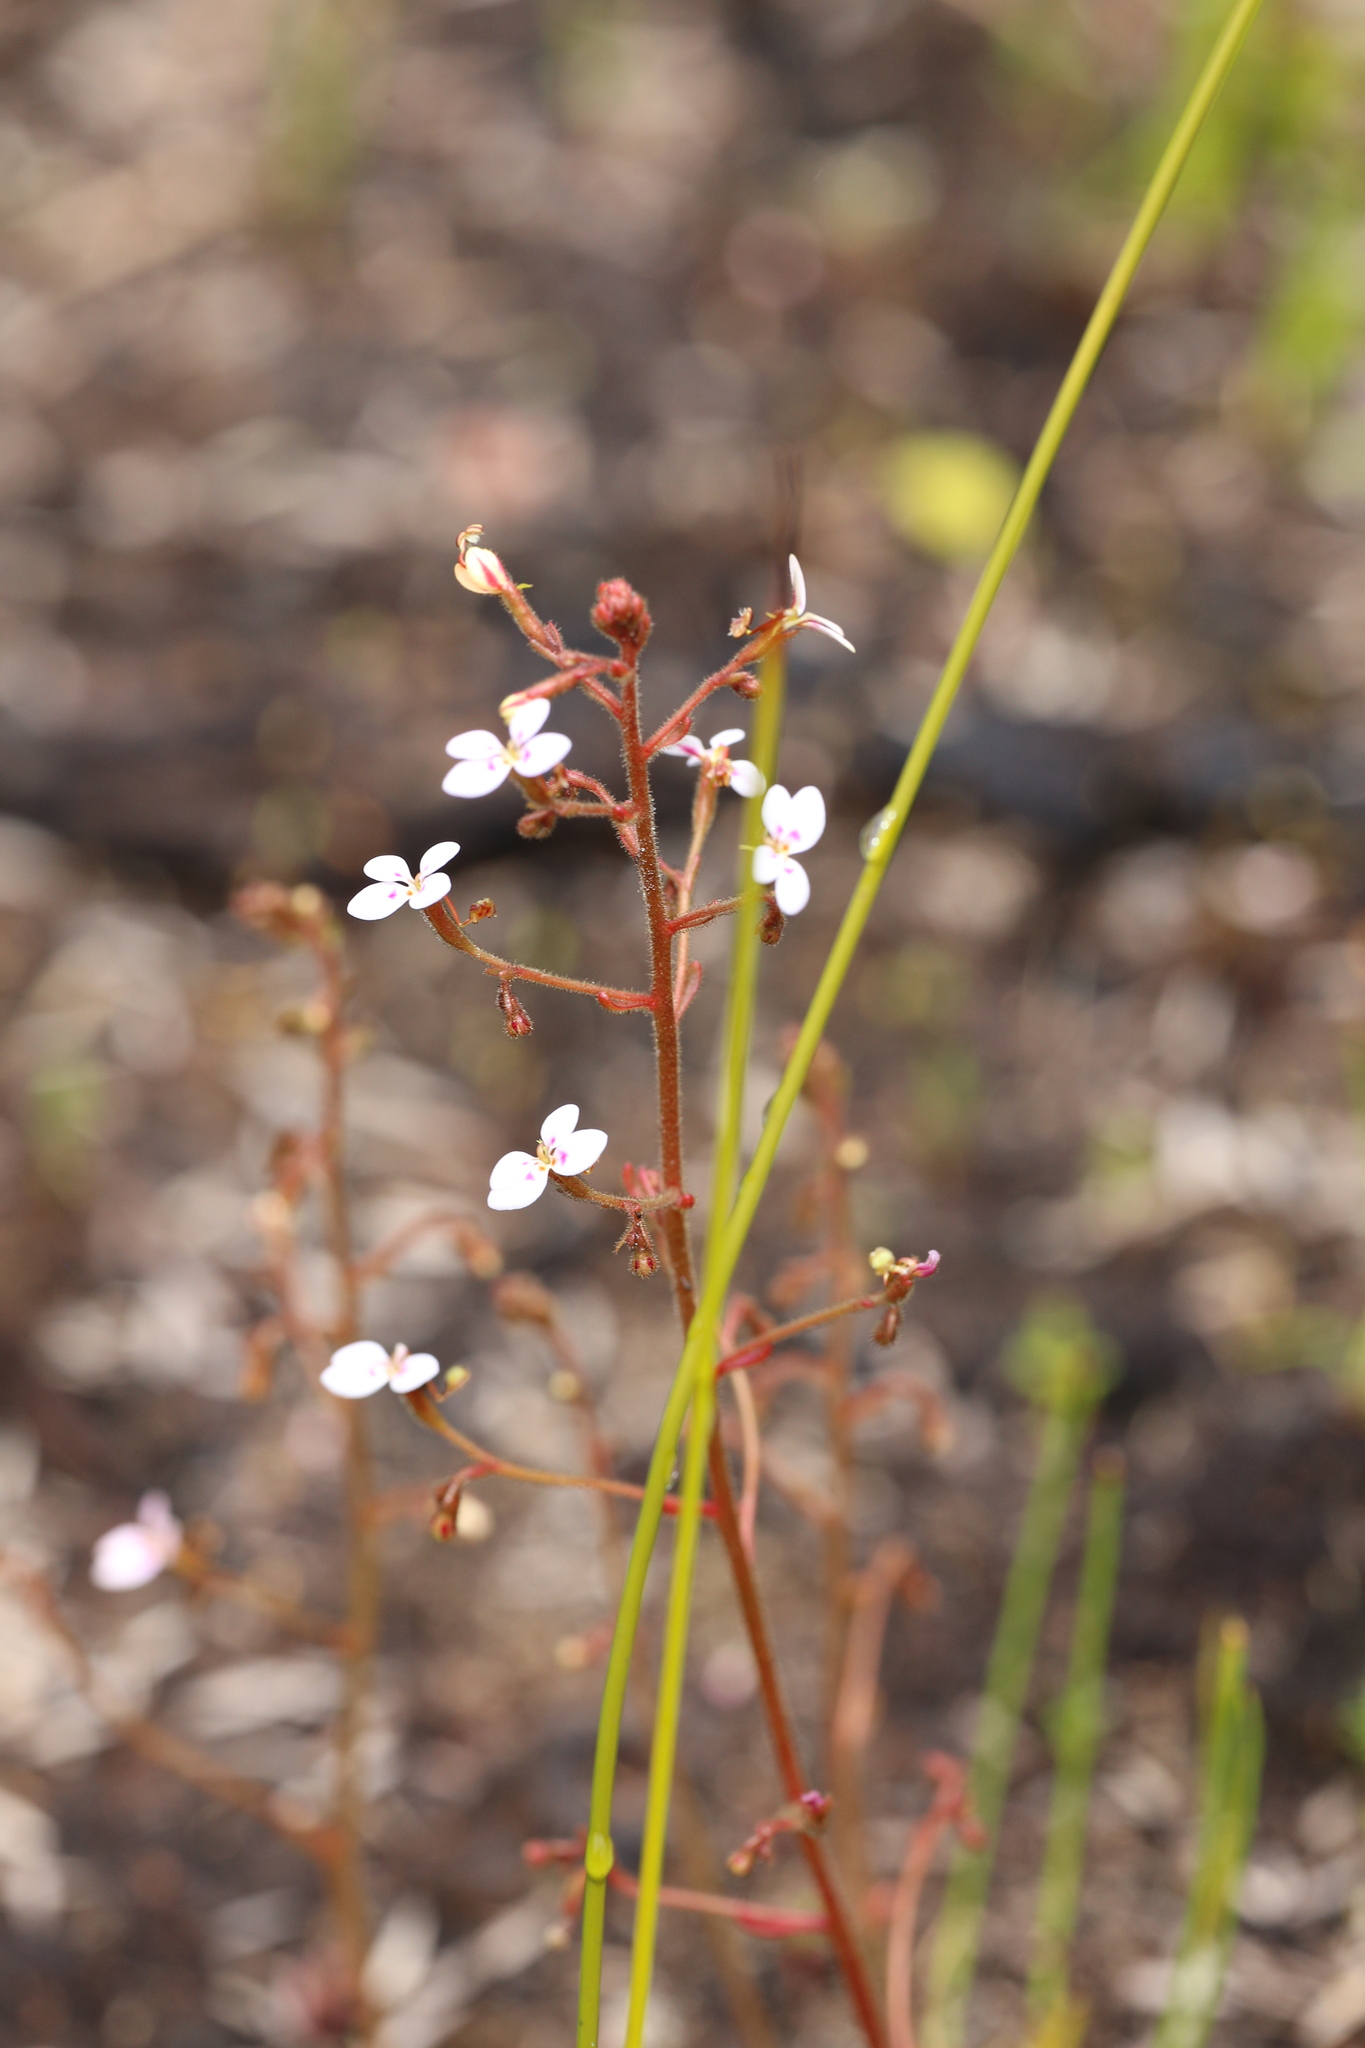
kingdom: Plantae
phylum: Tracheophyta
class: Magnoliopsida
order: Asterales
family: Stylidiaceae
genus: Stylidium
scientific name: Stylidium assimile
